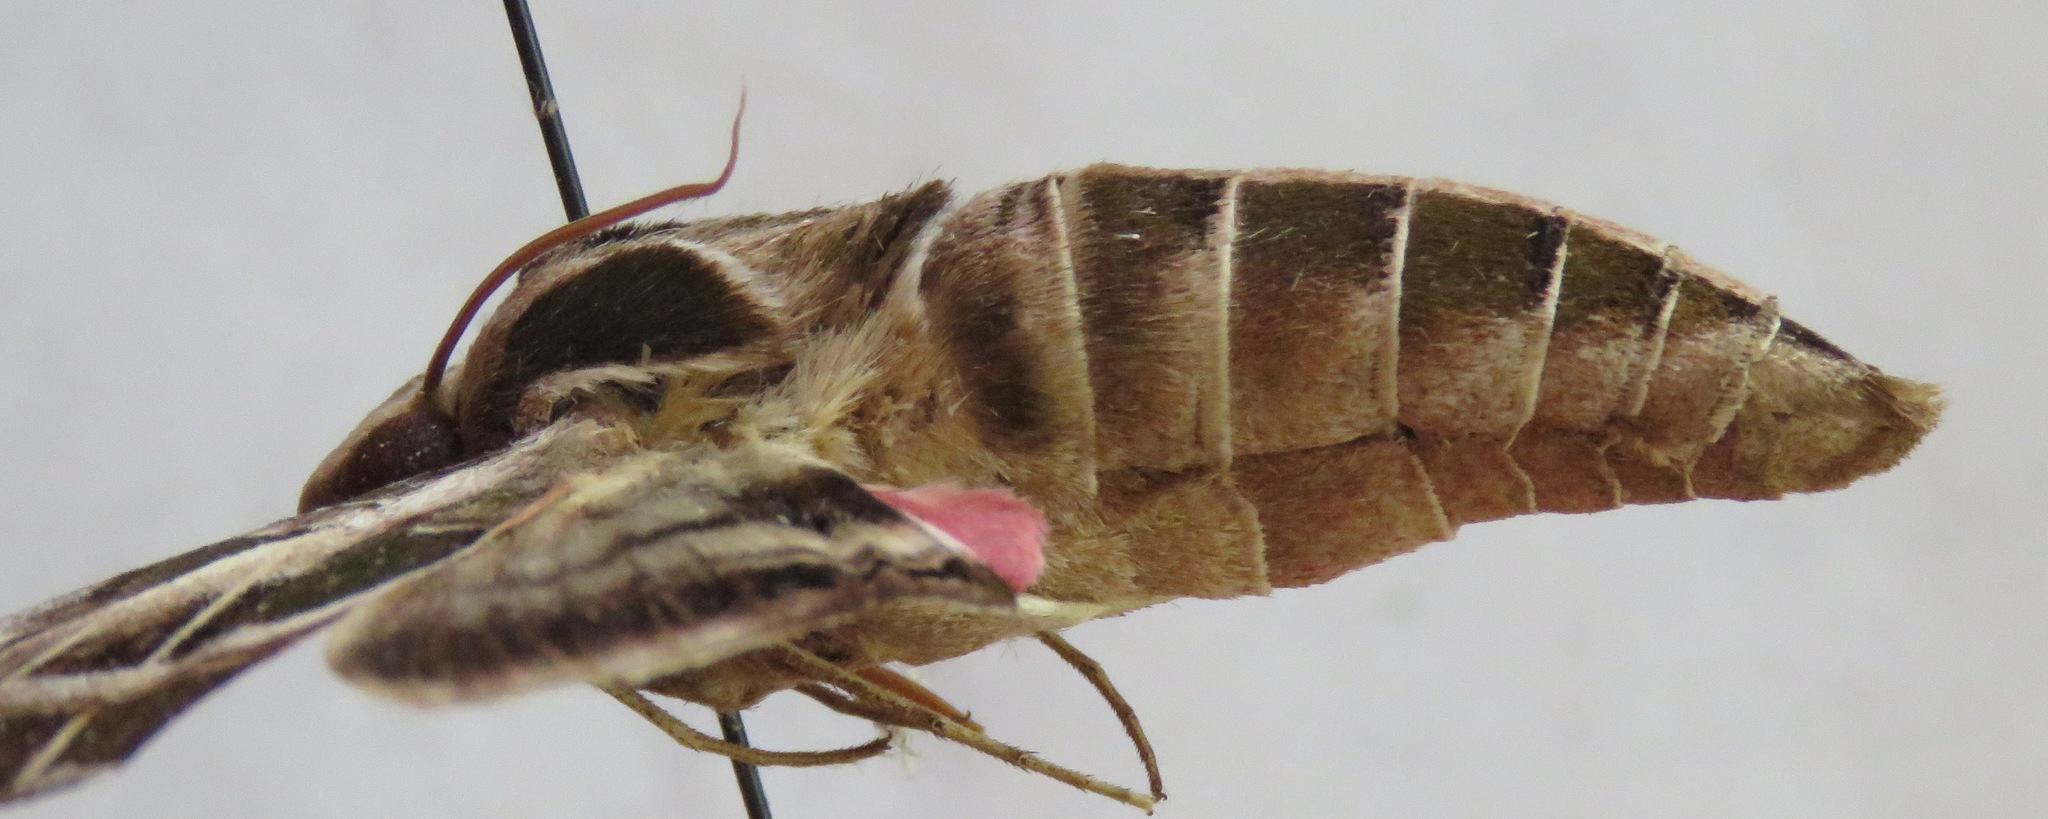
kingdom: Animalia
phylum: Arthropoda
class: Insecta
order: Lepidoptera
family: Sphingidae
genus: Eumorpha
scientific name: Eumorpha vitis
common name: Vine sphinx
